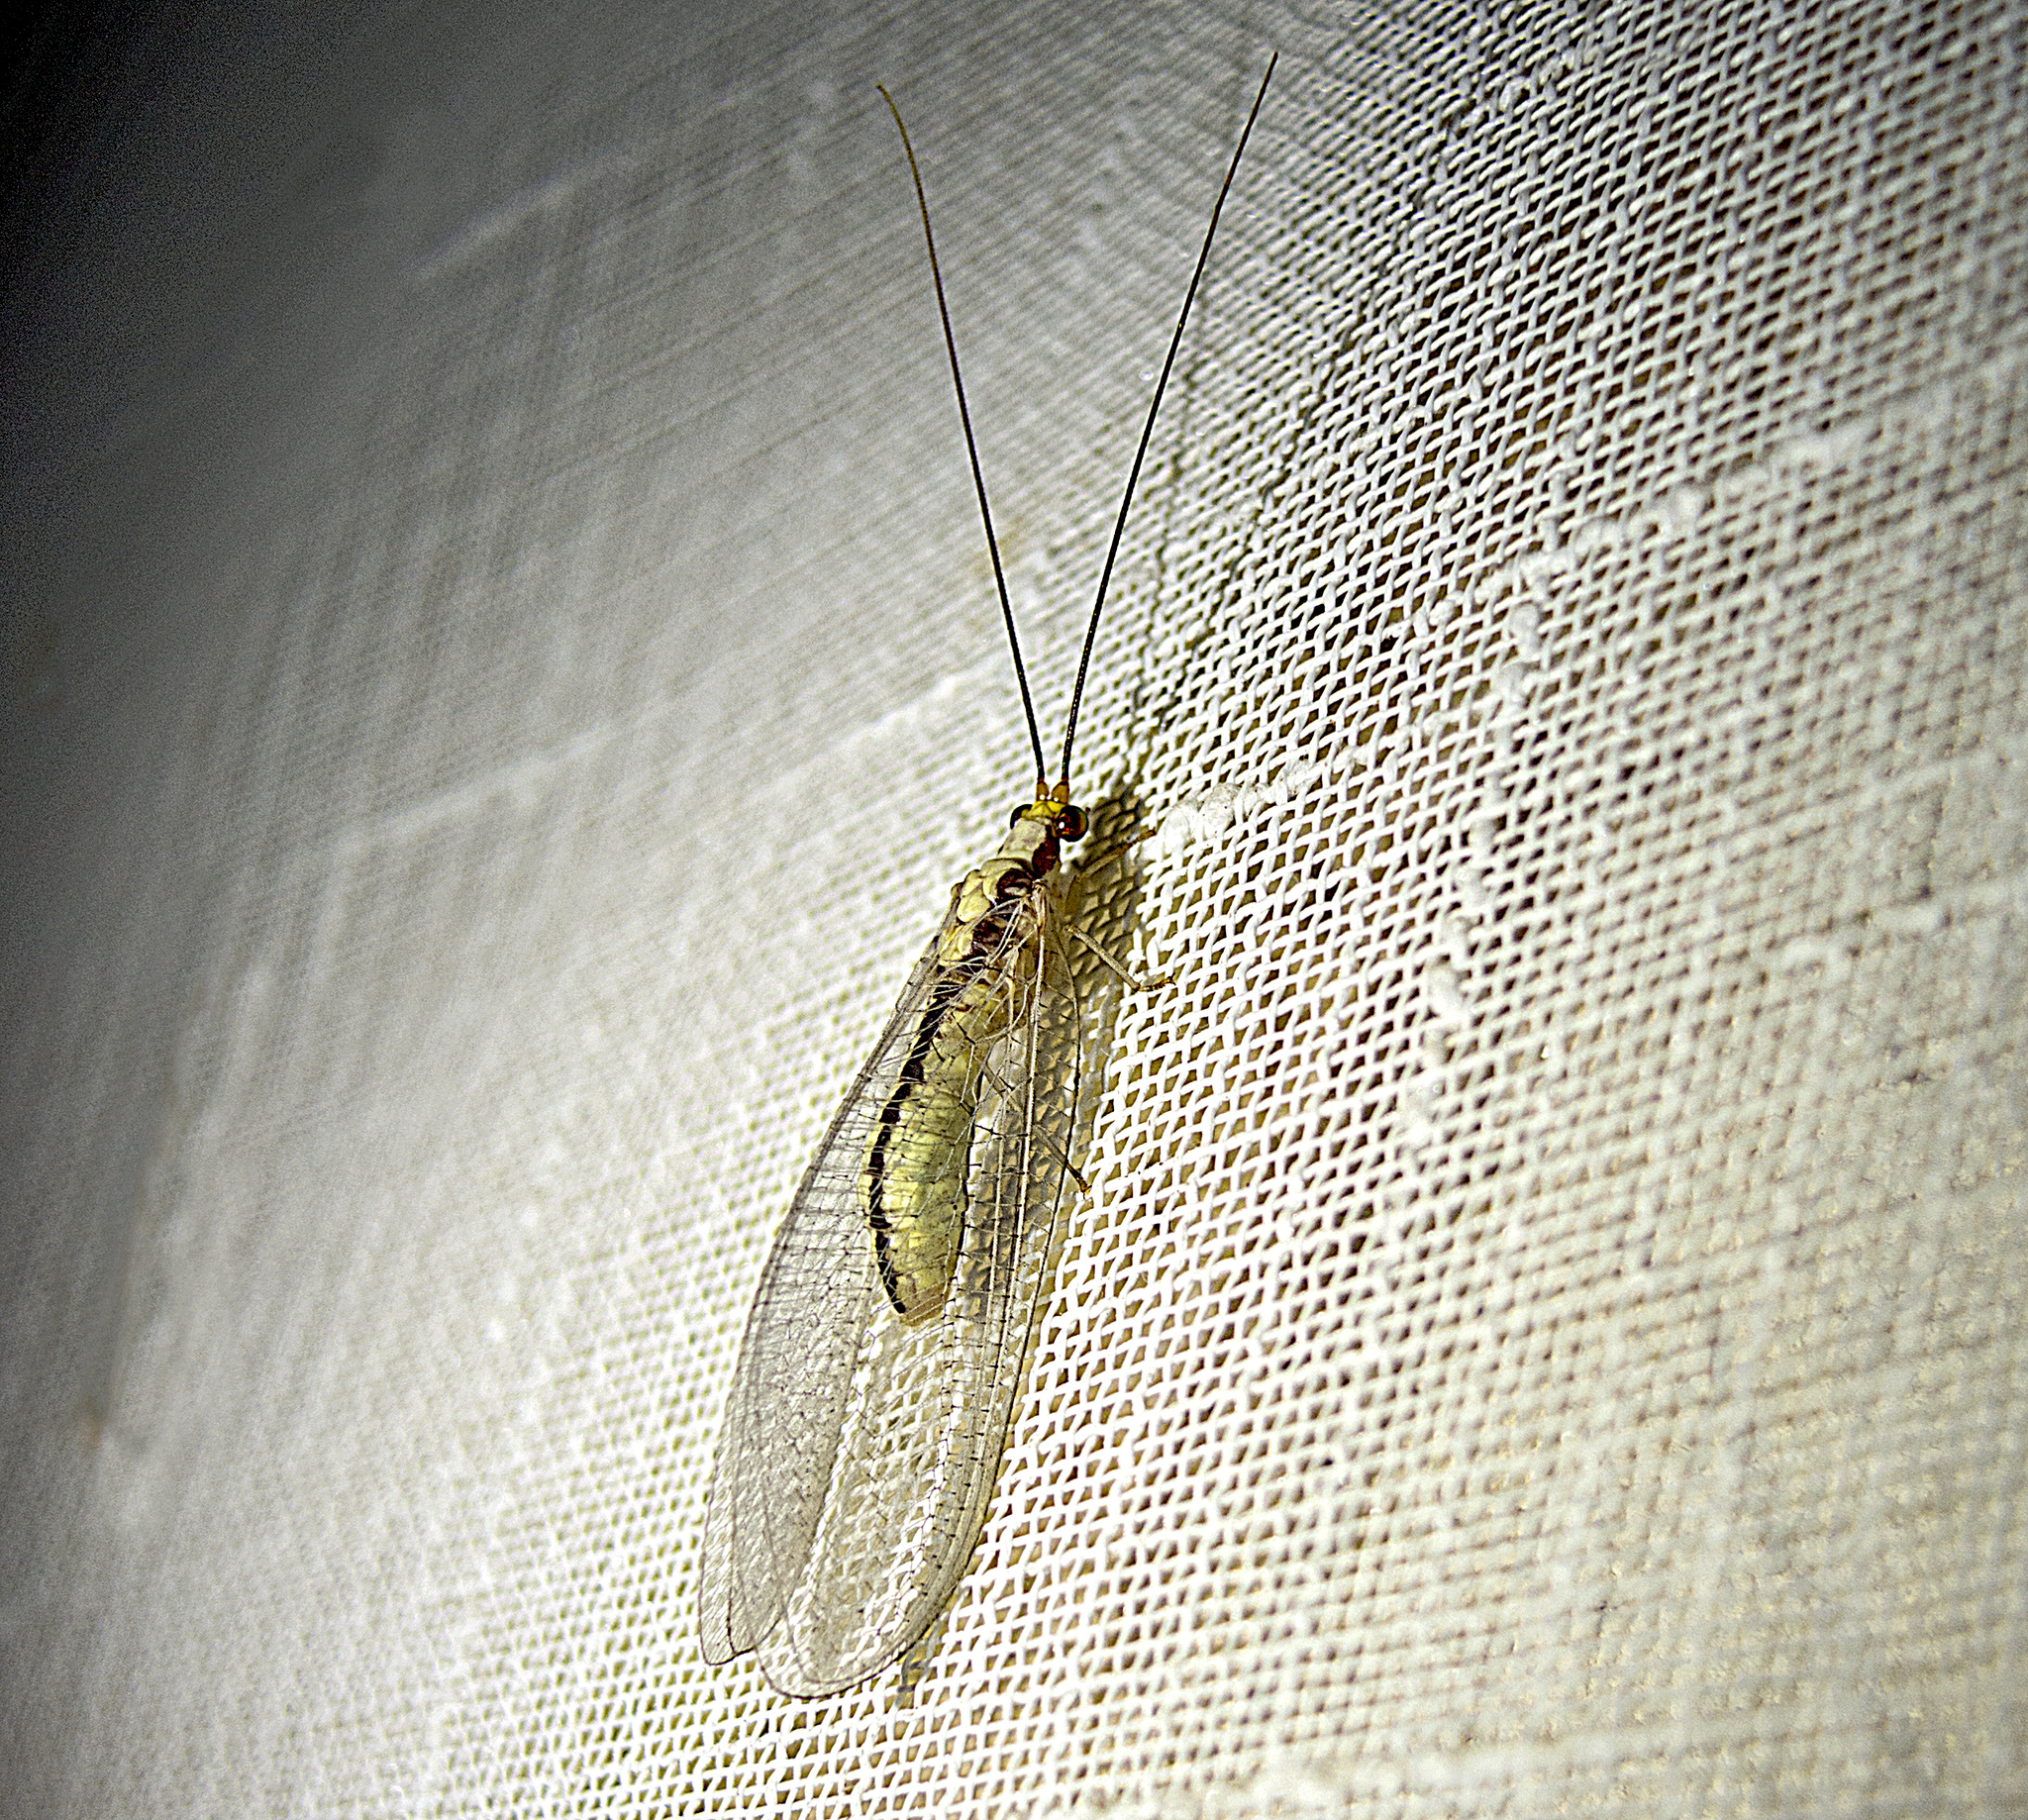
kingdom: Animalia
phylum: Arthropoda
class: Insecta
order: Neuroptera
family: Chrysopidae
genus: Italochrysa
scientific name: Italochrysa italica
